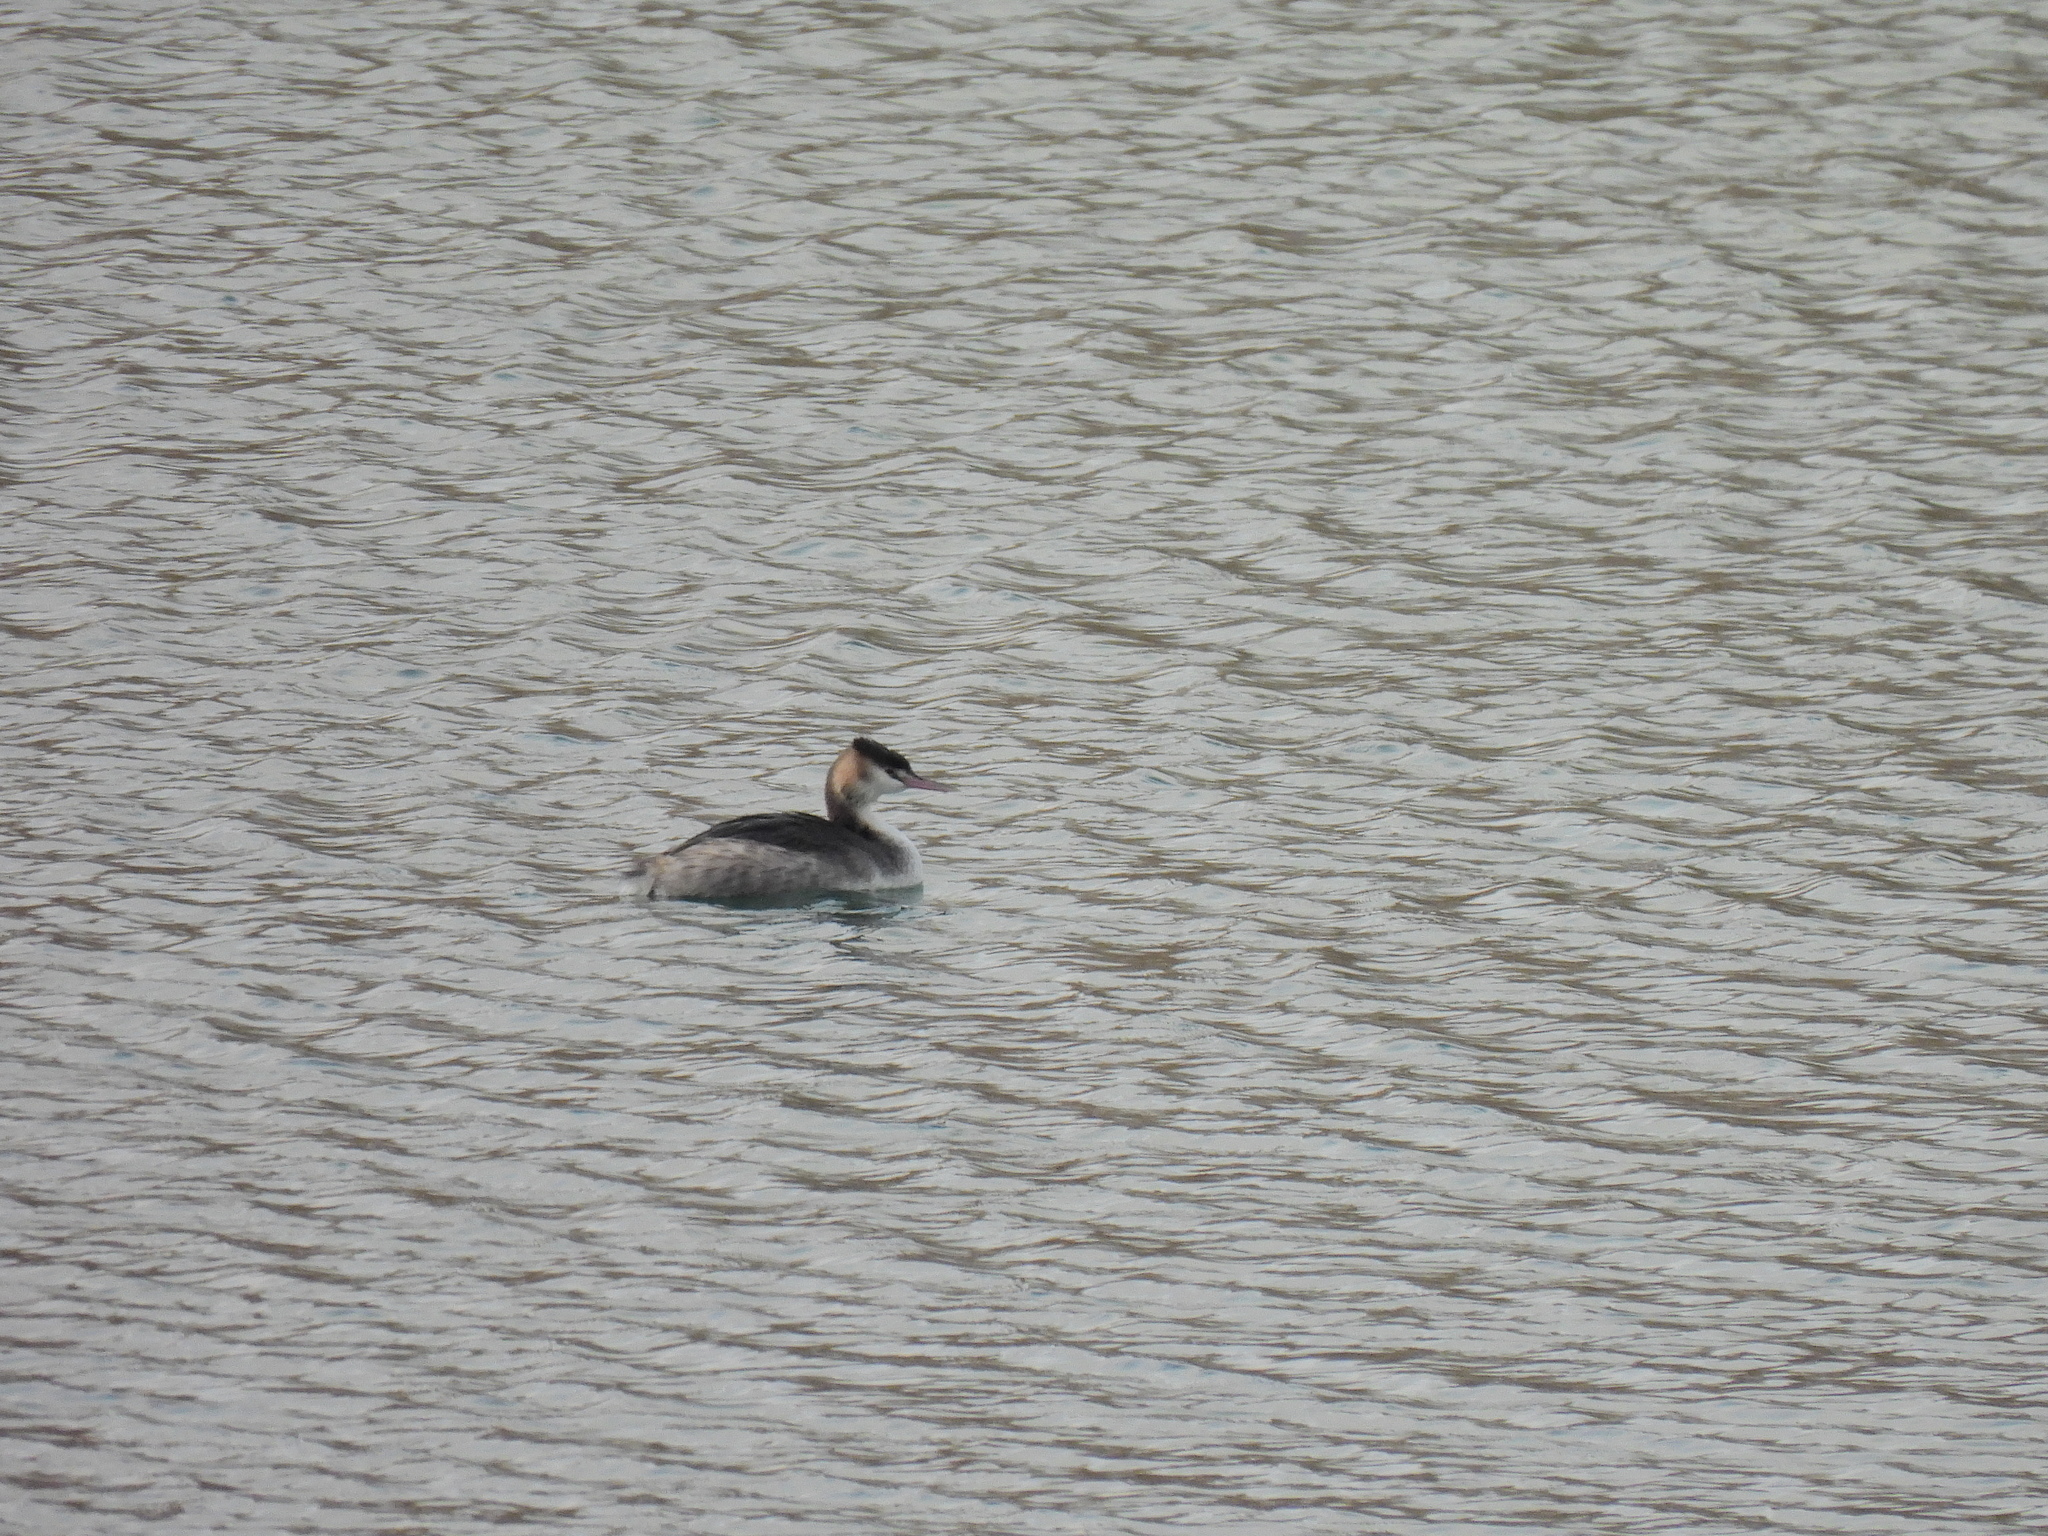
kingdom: Animalia
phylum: Chordata
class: Aves
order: Podicipediformes
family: Podicipedidae
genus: Podiceps
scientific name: Podiceps cristatus
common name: Great crested grebe
